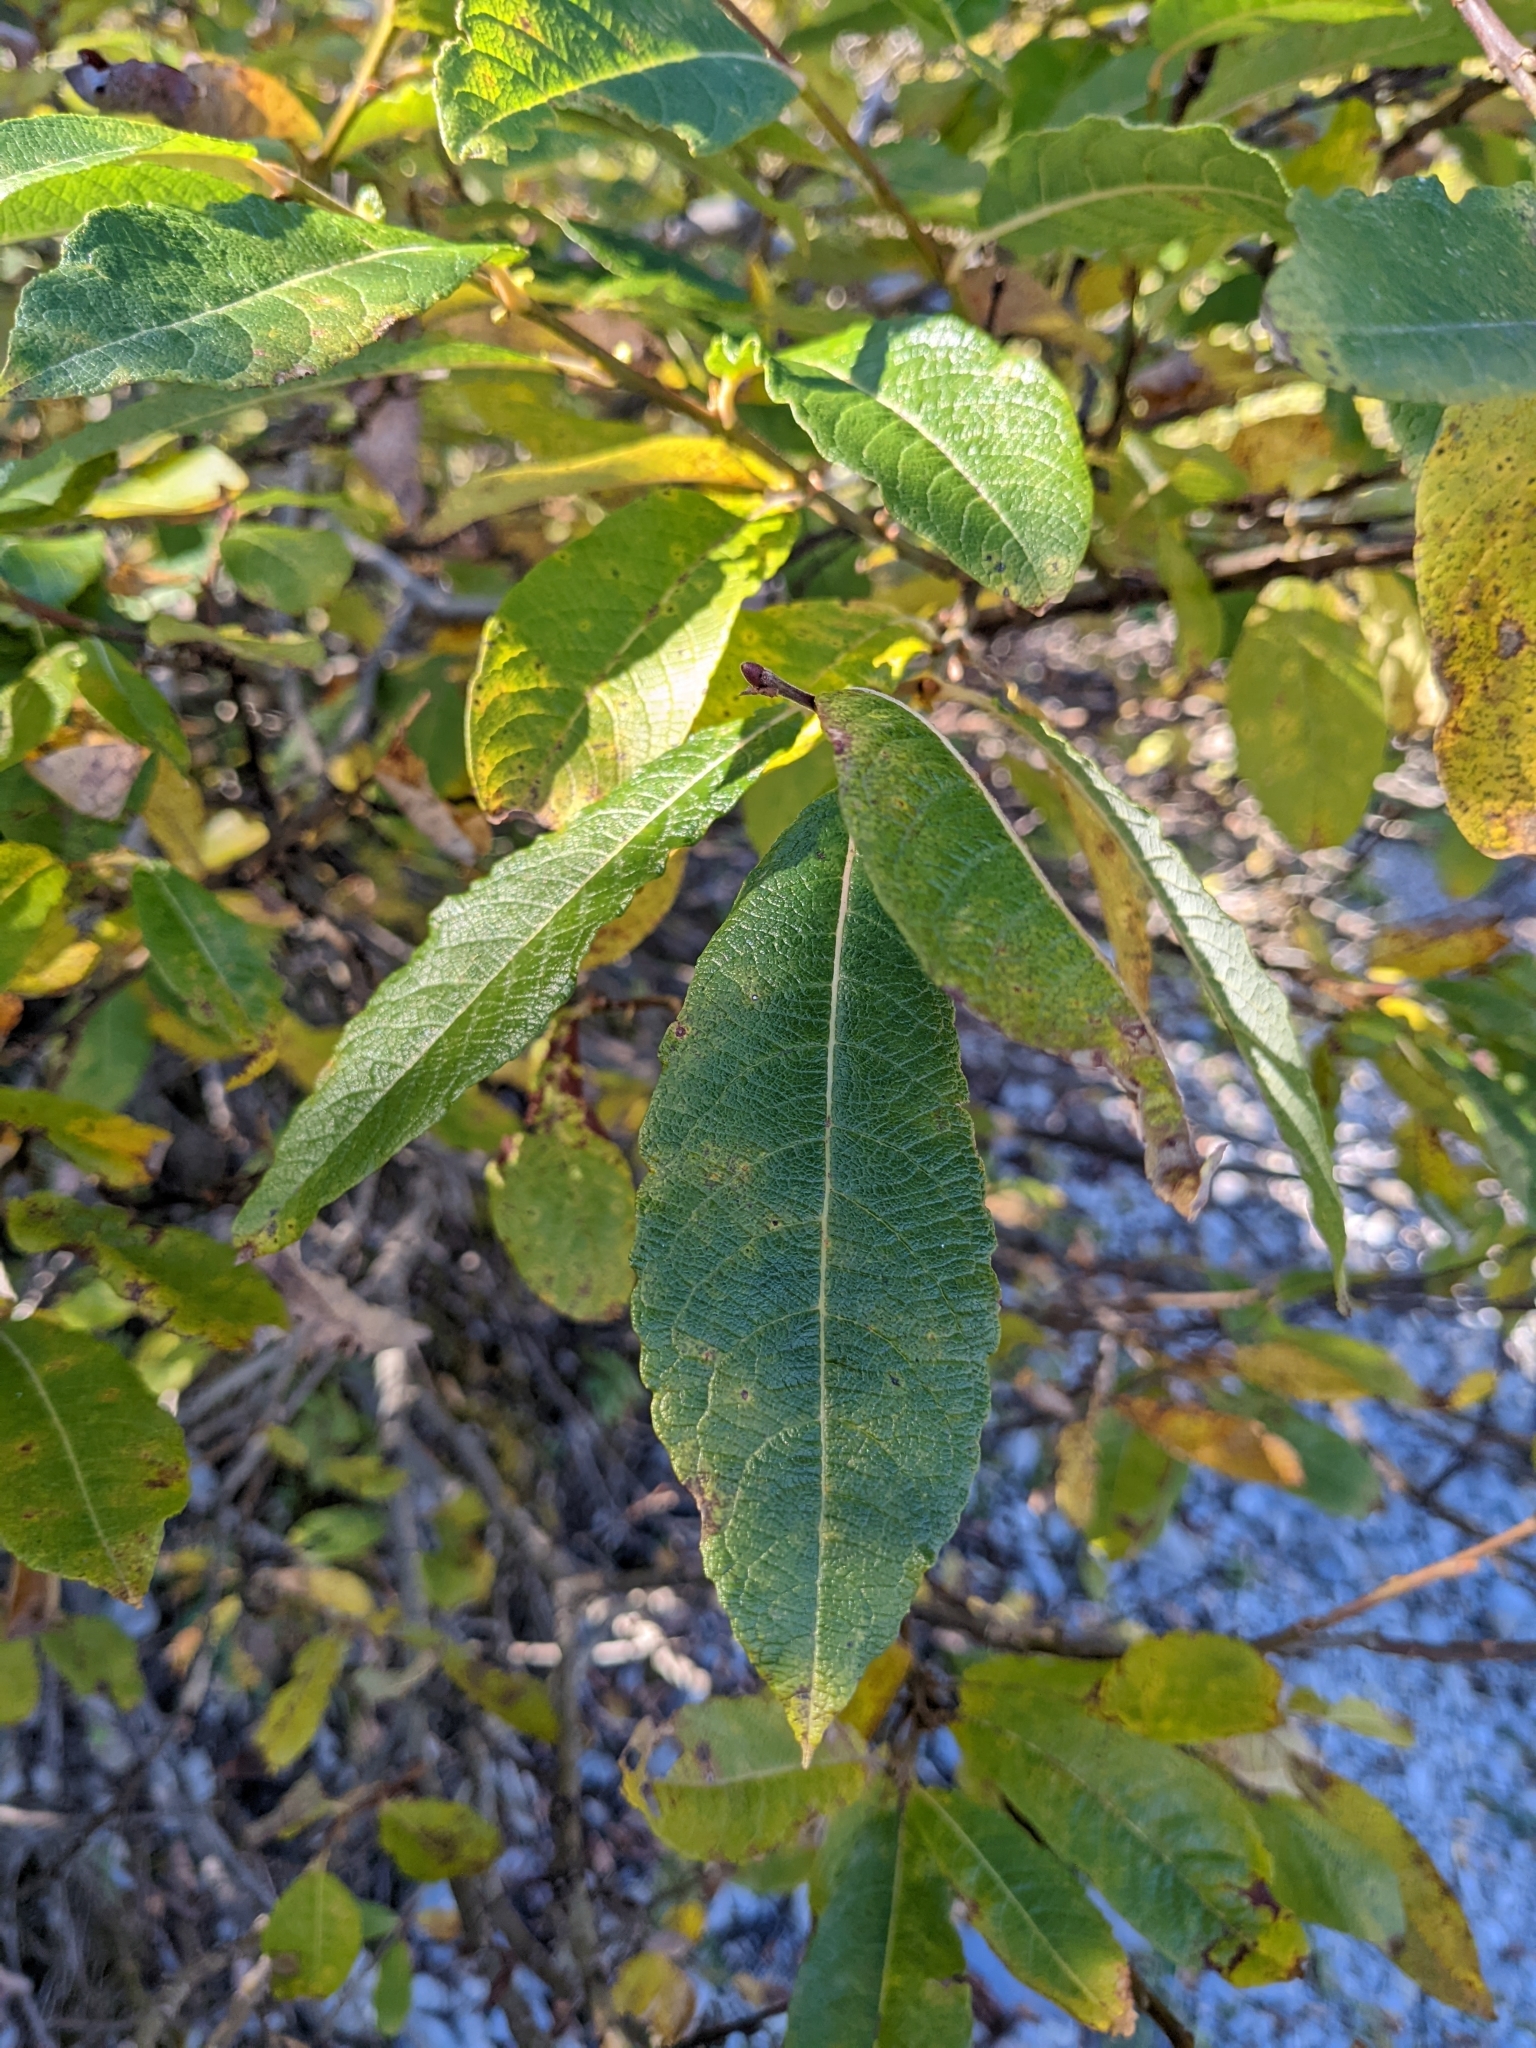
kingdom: Plantae
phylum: Tracheophyta
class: Magnoliopsida
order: Malpighiales
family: Salicaceae
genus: Salix
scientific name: Salix appendiculata
